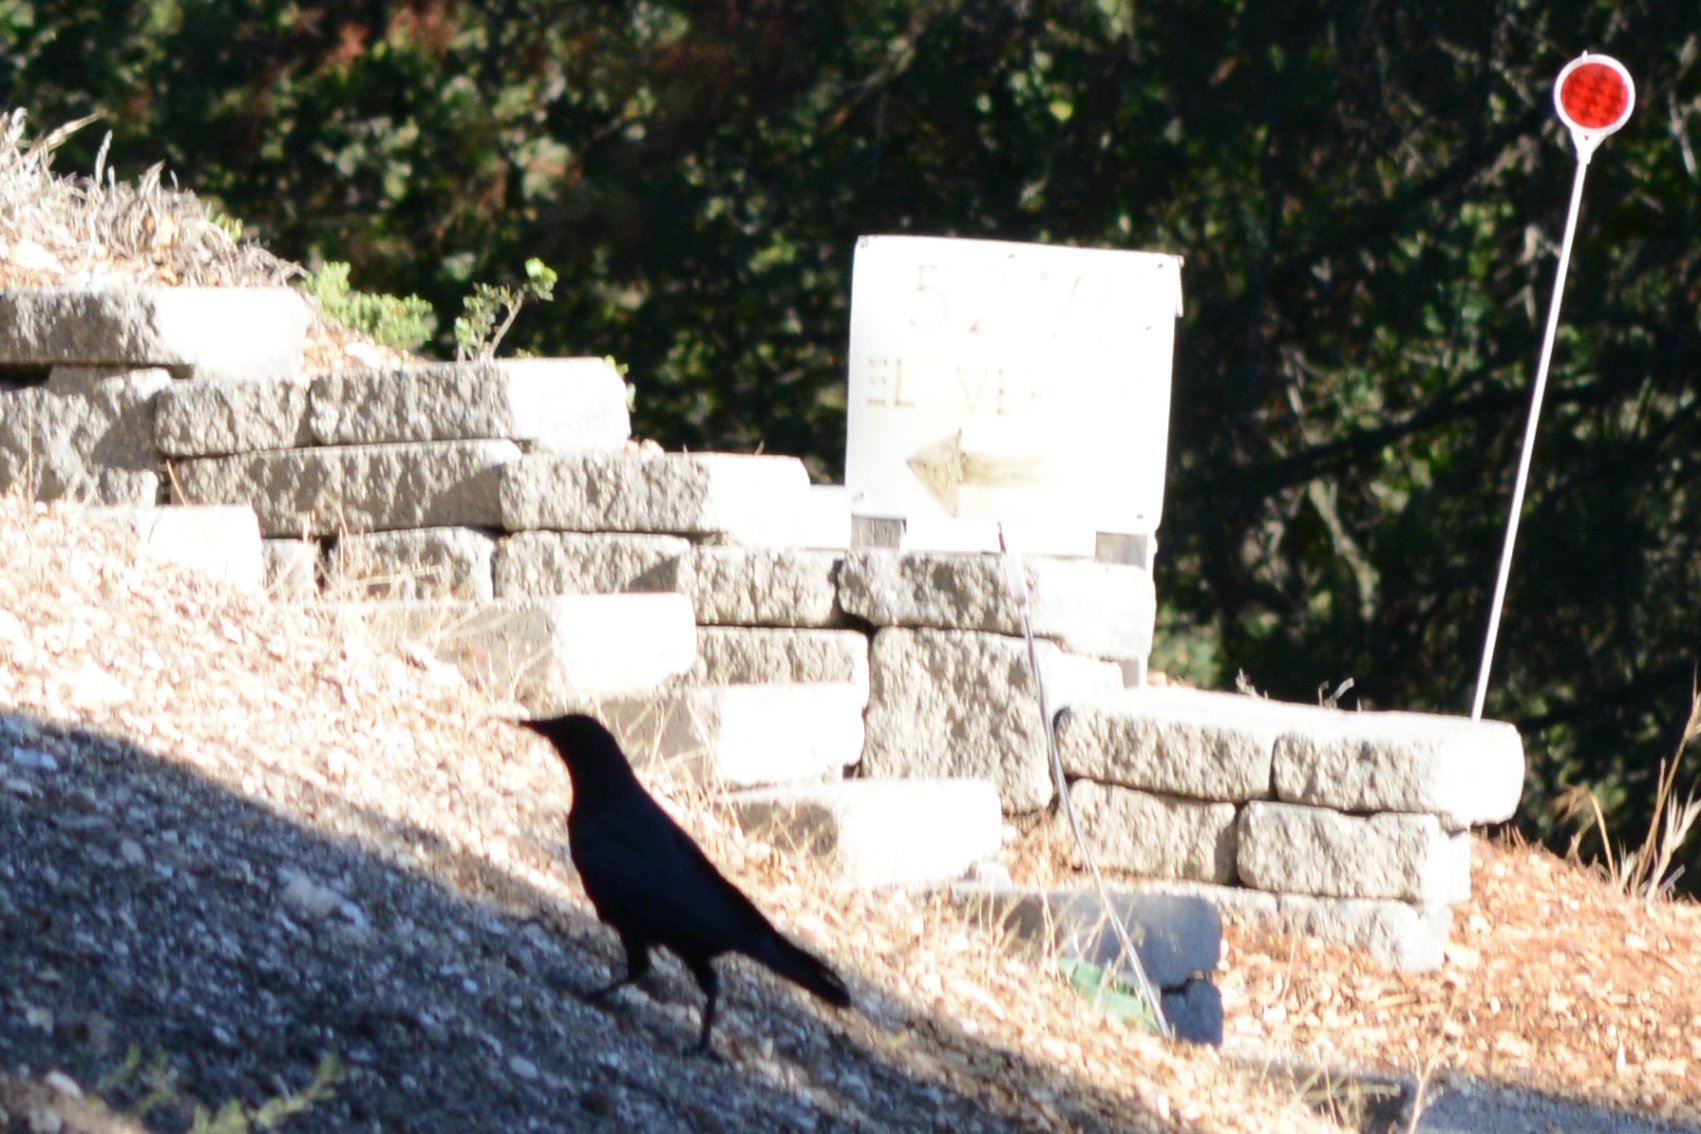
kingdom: Animalia
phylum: Chordata
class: Aves
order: Passeriformes
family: Corvidae
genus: Corvus
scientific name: Corvus brachyrhynchos
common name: American crow
